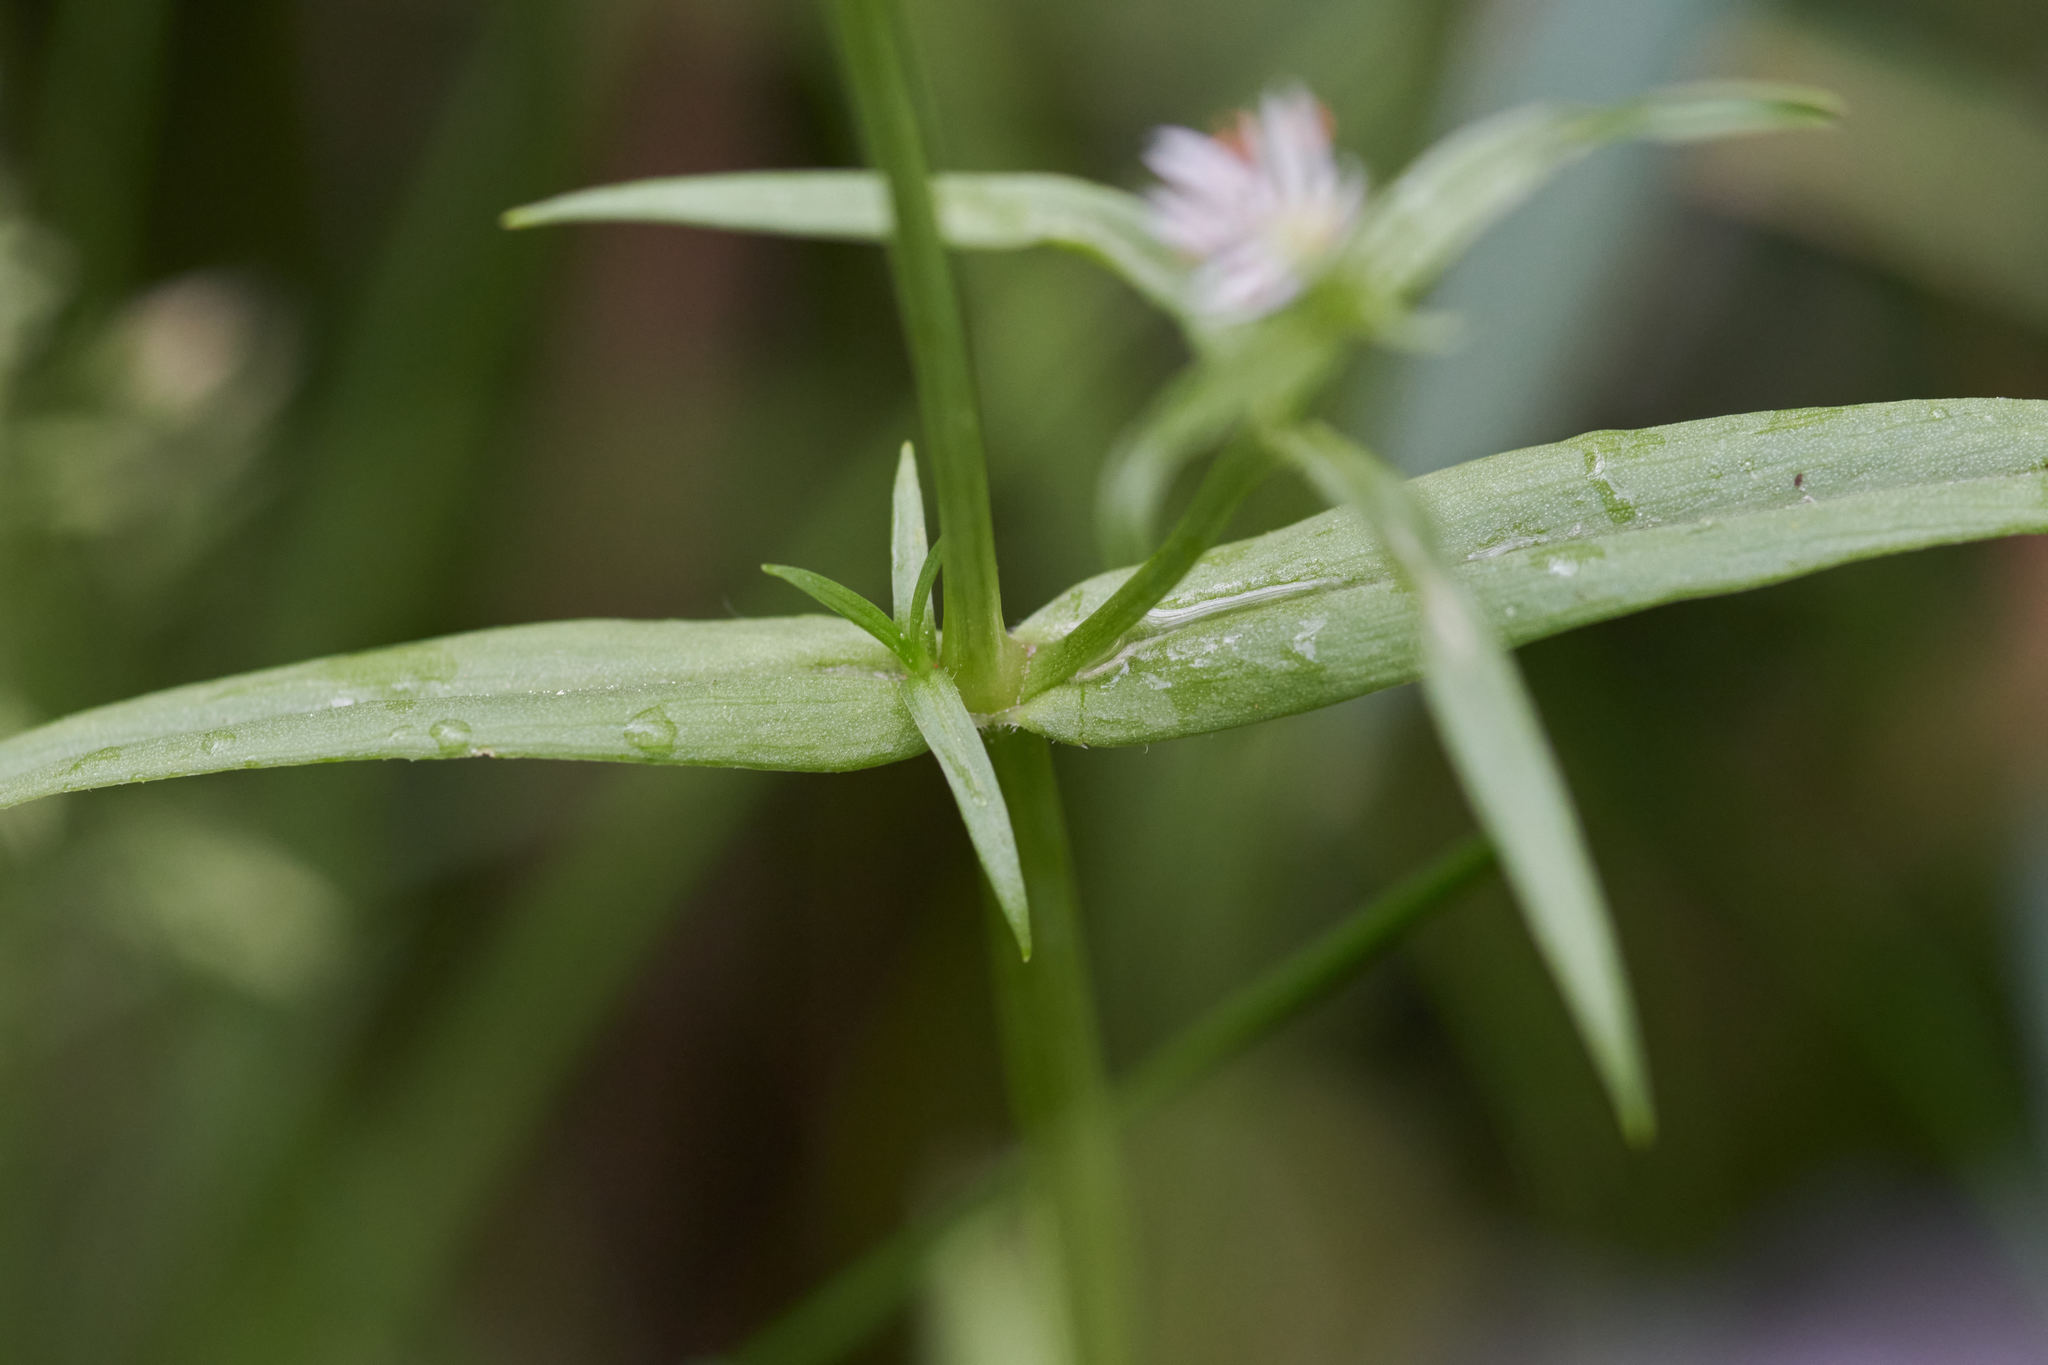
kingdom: Plantae
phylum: Tracheophyta
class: Magnoliopsida
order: Caryophyllales
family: Caryophyllaceae
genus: Stellaria
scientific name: Stellaria graminea
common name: Grass-like starwort
